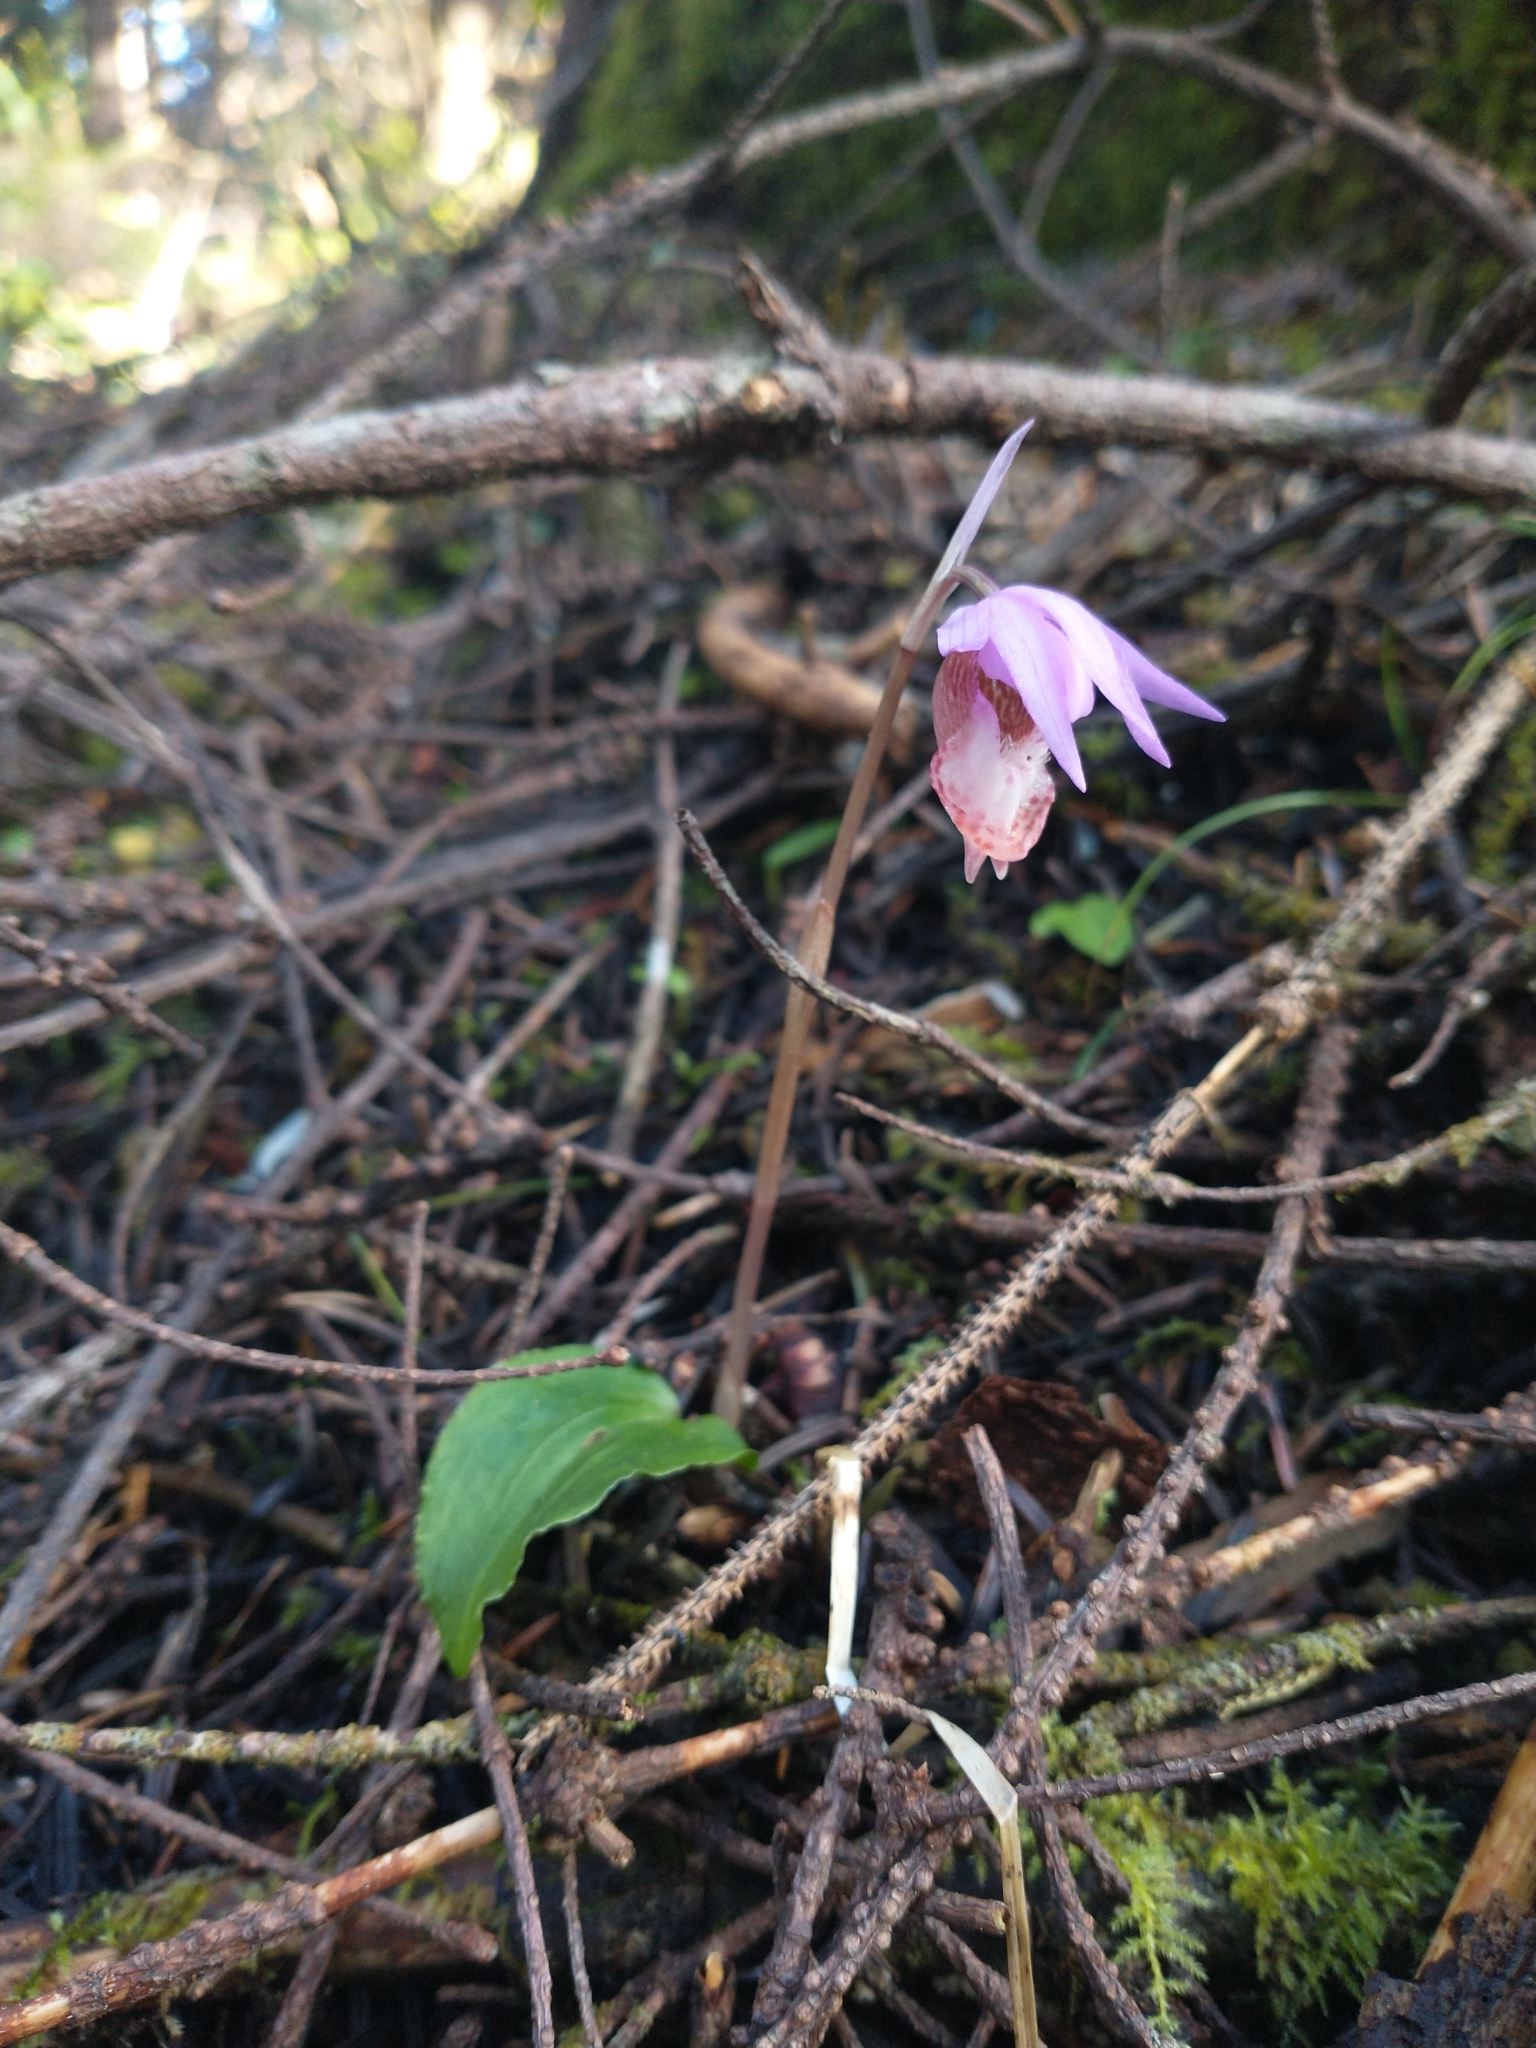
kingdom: Plantae
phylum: Tracheophyta
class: Liliopsida
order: Asparagales
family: Orchidaceae
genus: Calypso
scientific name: Calypso bulbosa
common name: Calypso
